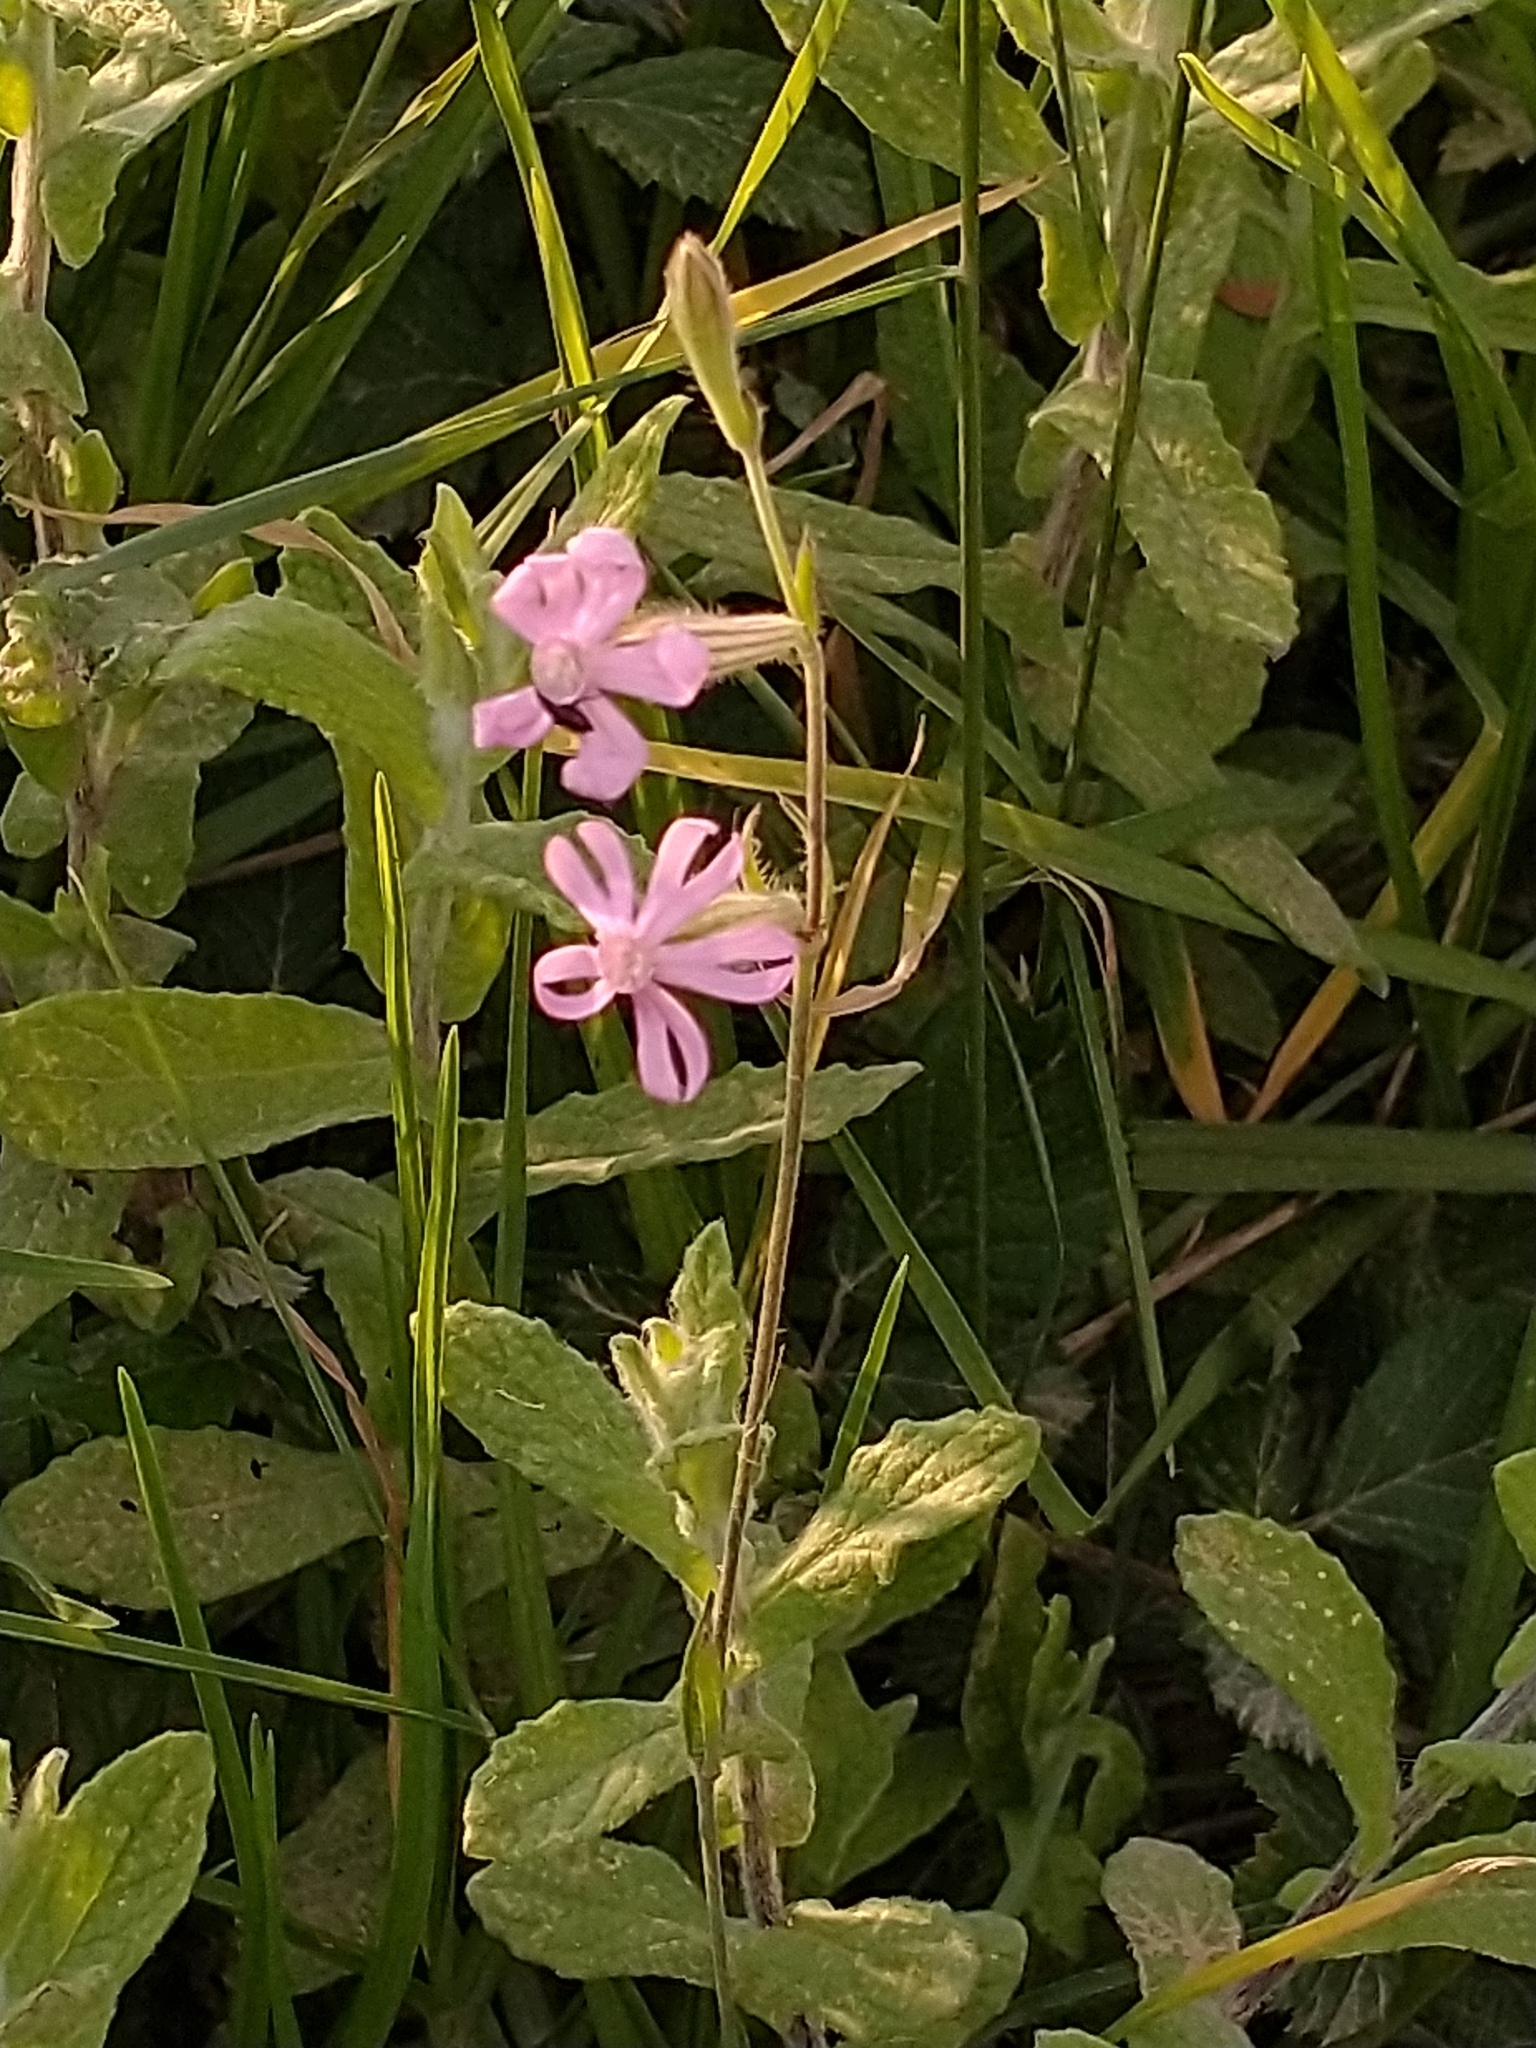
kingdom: Plantae
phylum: Tracheophyta
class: Magnoliopsida
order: Caryophyllales
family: Caryophyllaceae
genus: Silene
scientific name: Silene bellidifolia
